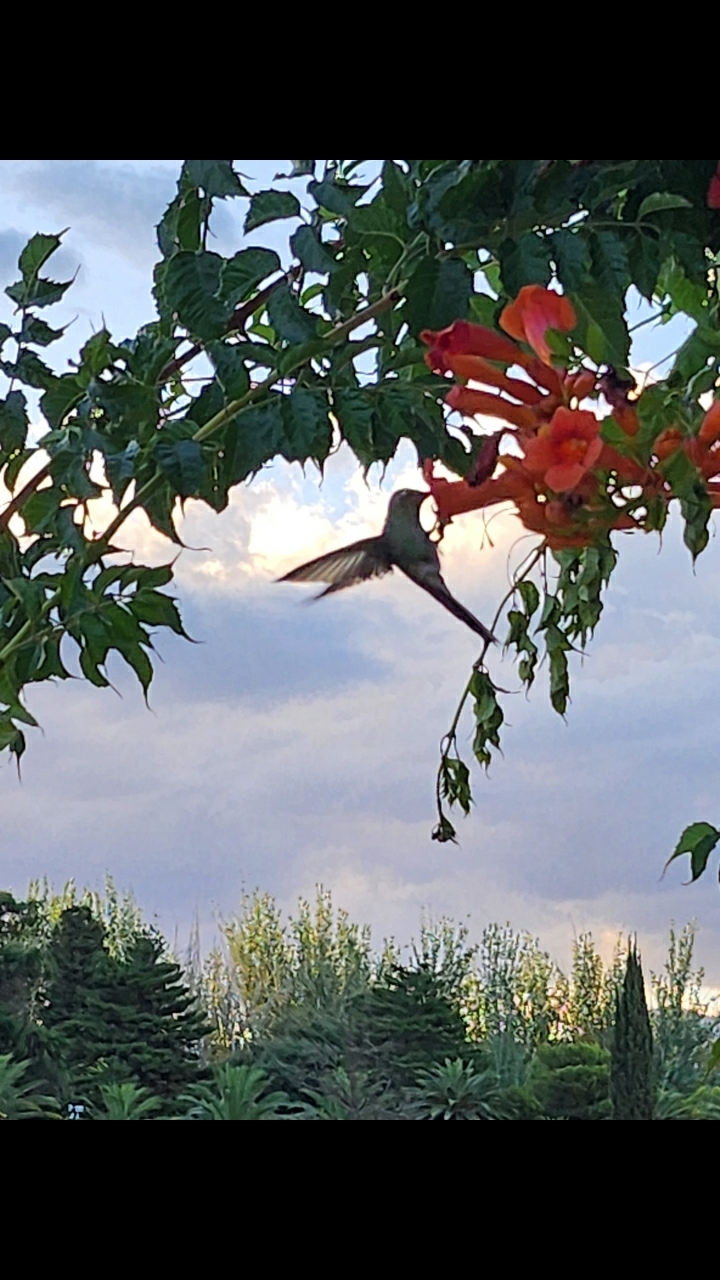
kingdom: Animalia
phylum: Chordata
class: Aves
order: Apodiformes
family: Trochilidae
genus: Sappho
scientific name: Sappho sparganurus
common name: Red-tailed comet
